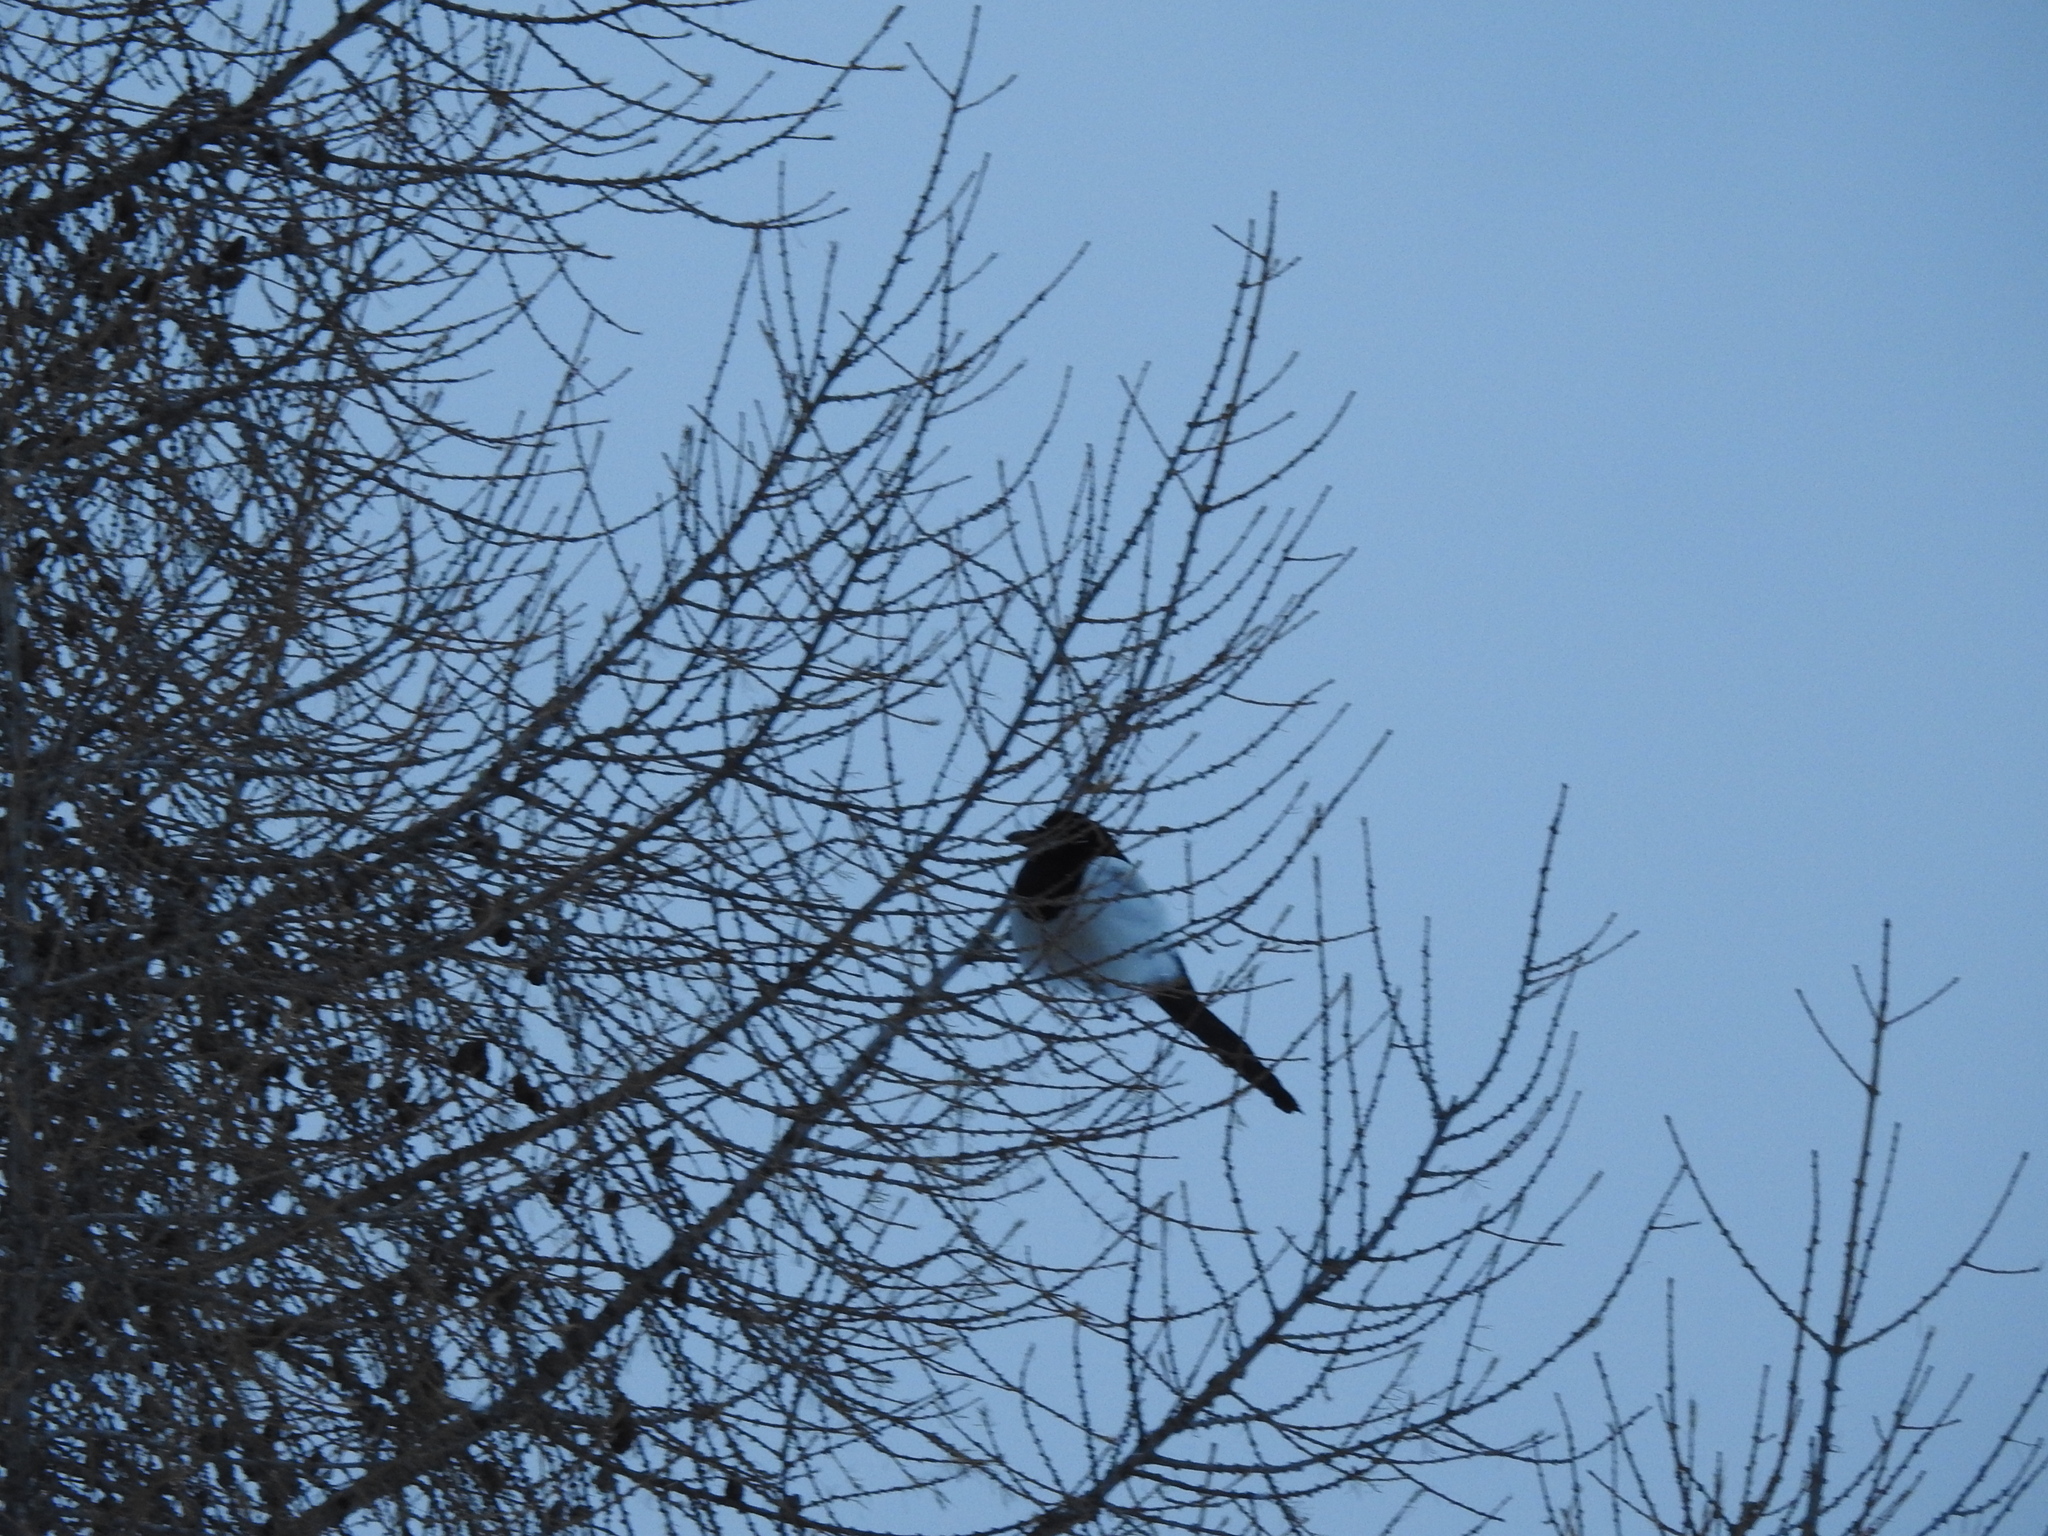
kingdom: Animalia
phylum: Chordata
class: Aves
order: Passeriformes
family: Corvidae
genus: Pica
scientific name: Pica pica
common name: Eurasian magpie
